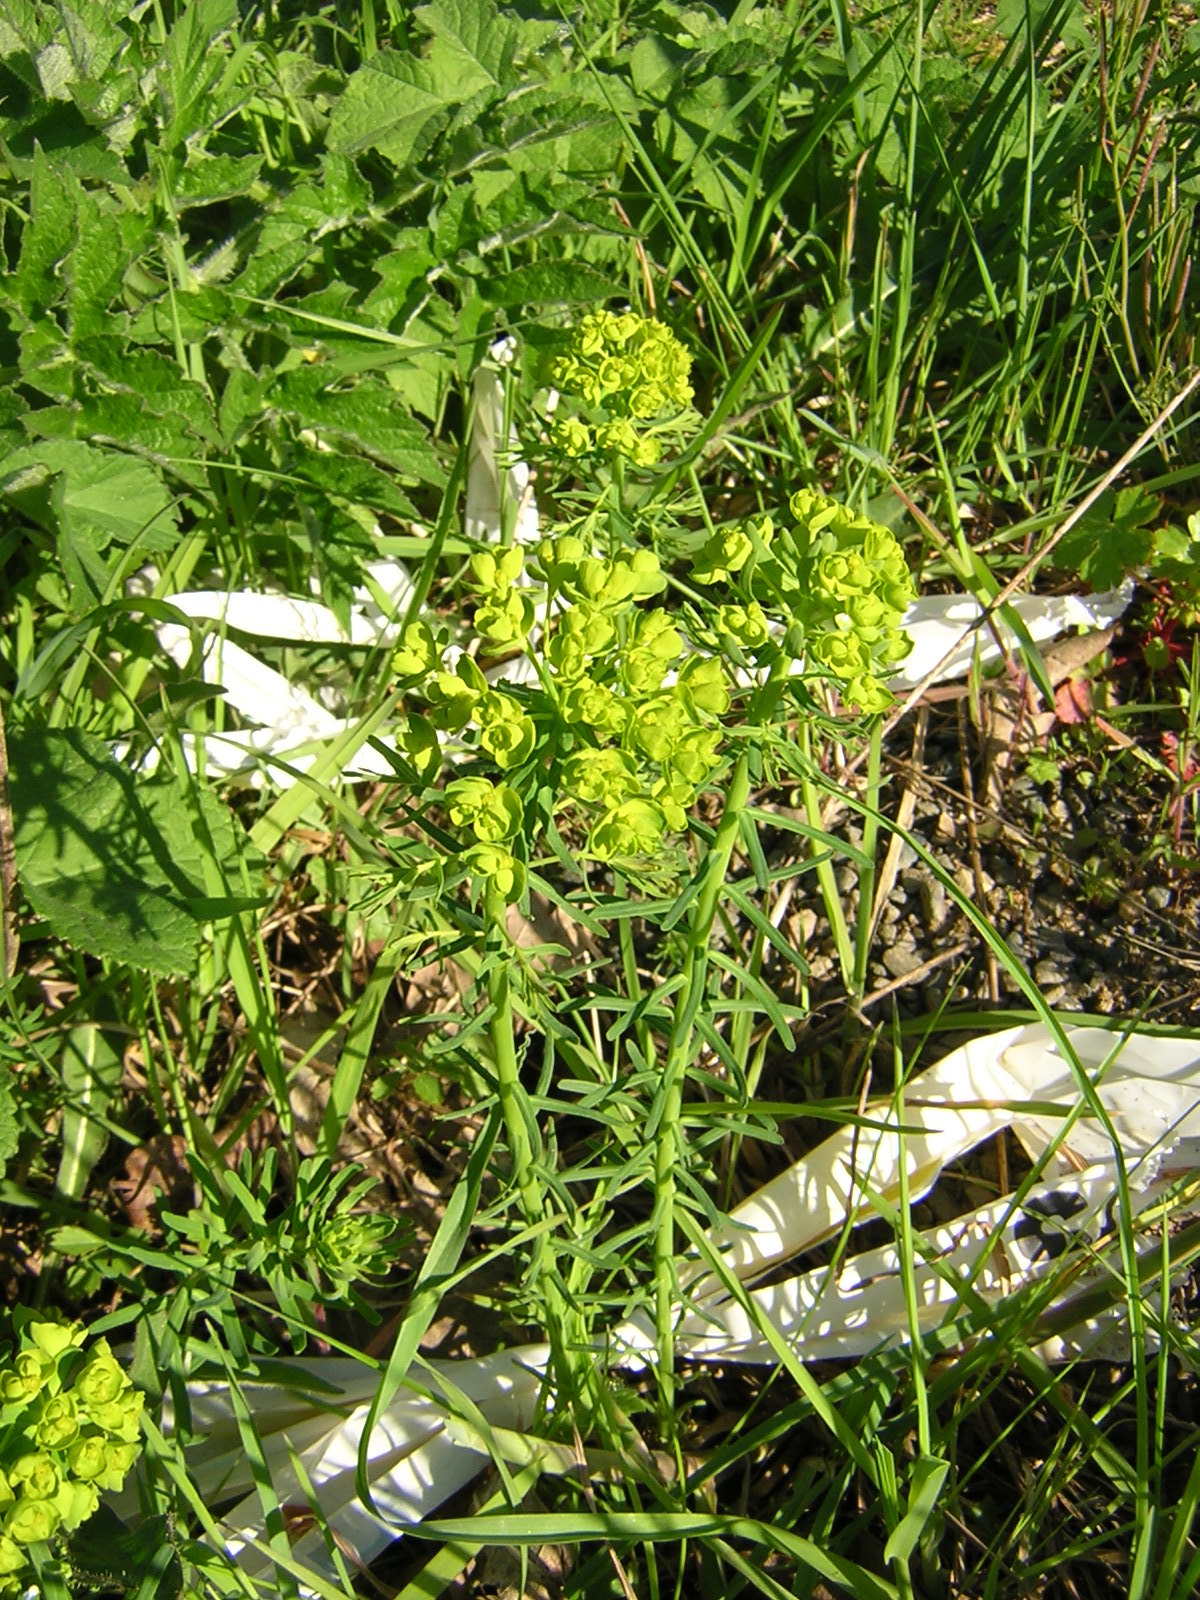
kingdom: Plantae
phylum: Tracheophyta
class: Magnoliopsida
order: Malpighiales
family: Euphorbiaceae
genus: Euphorbia
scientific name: Euphorbia cyparissias
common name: Cypress spurge
